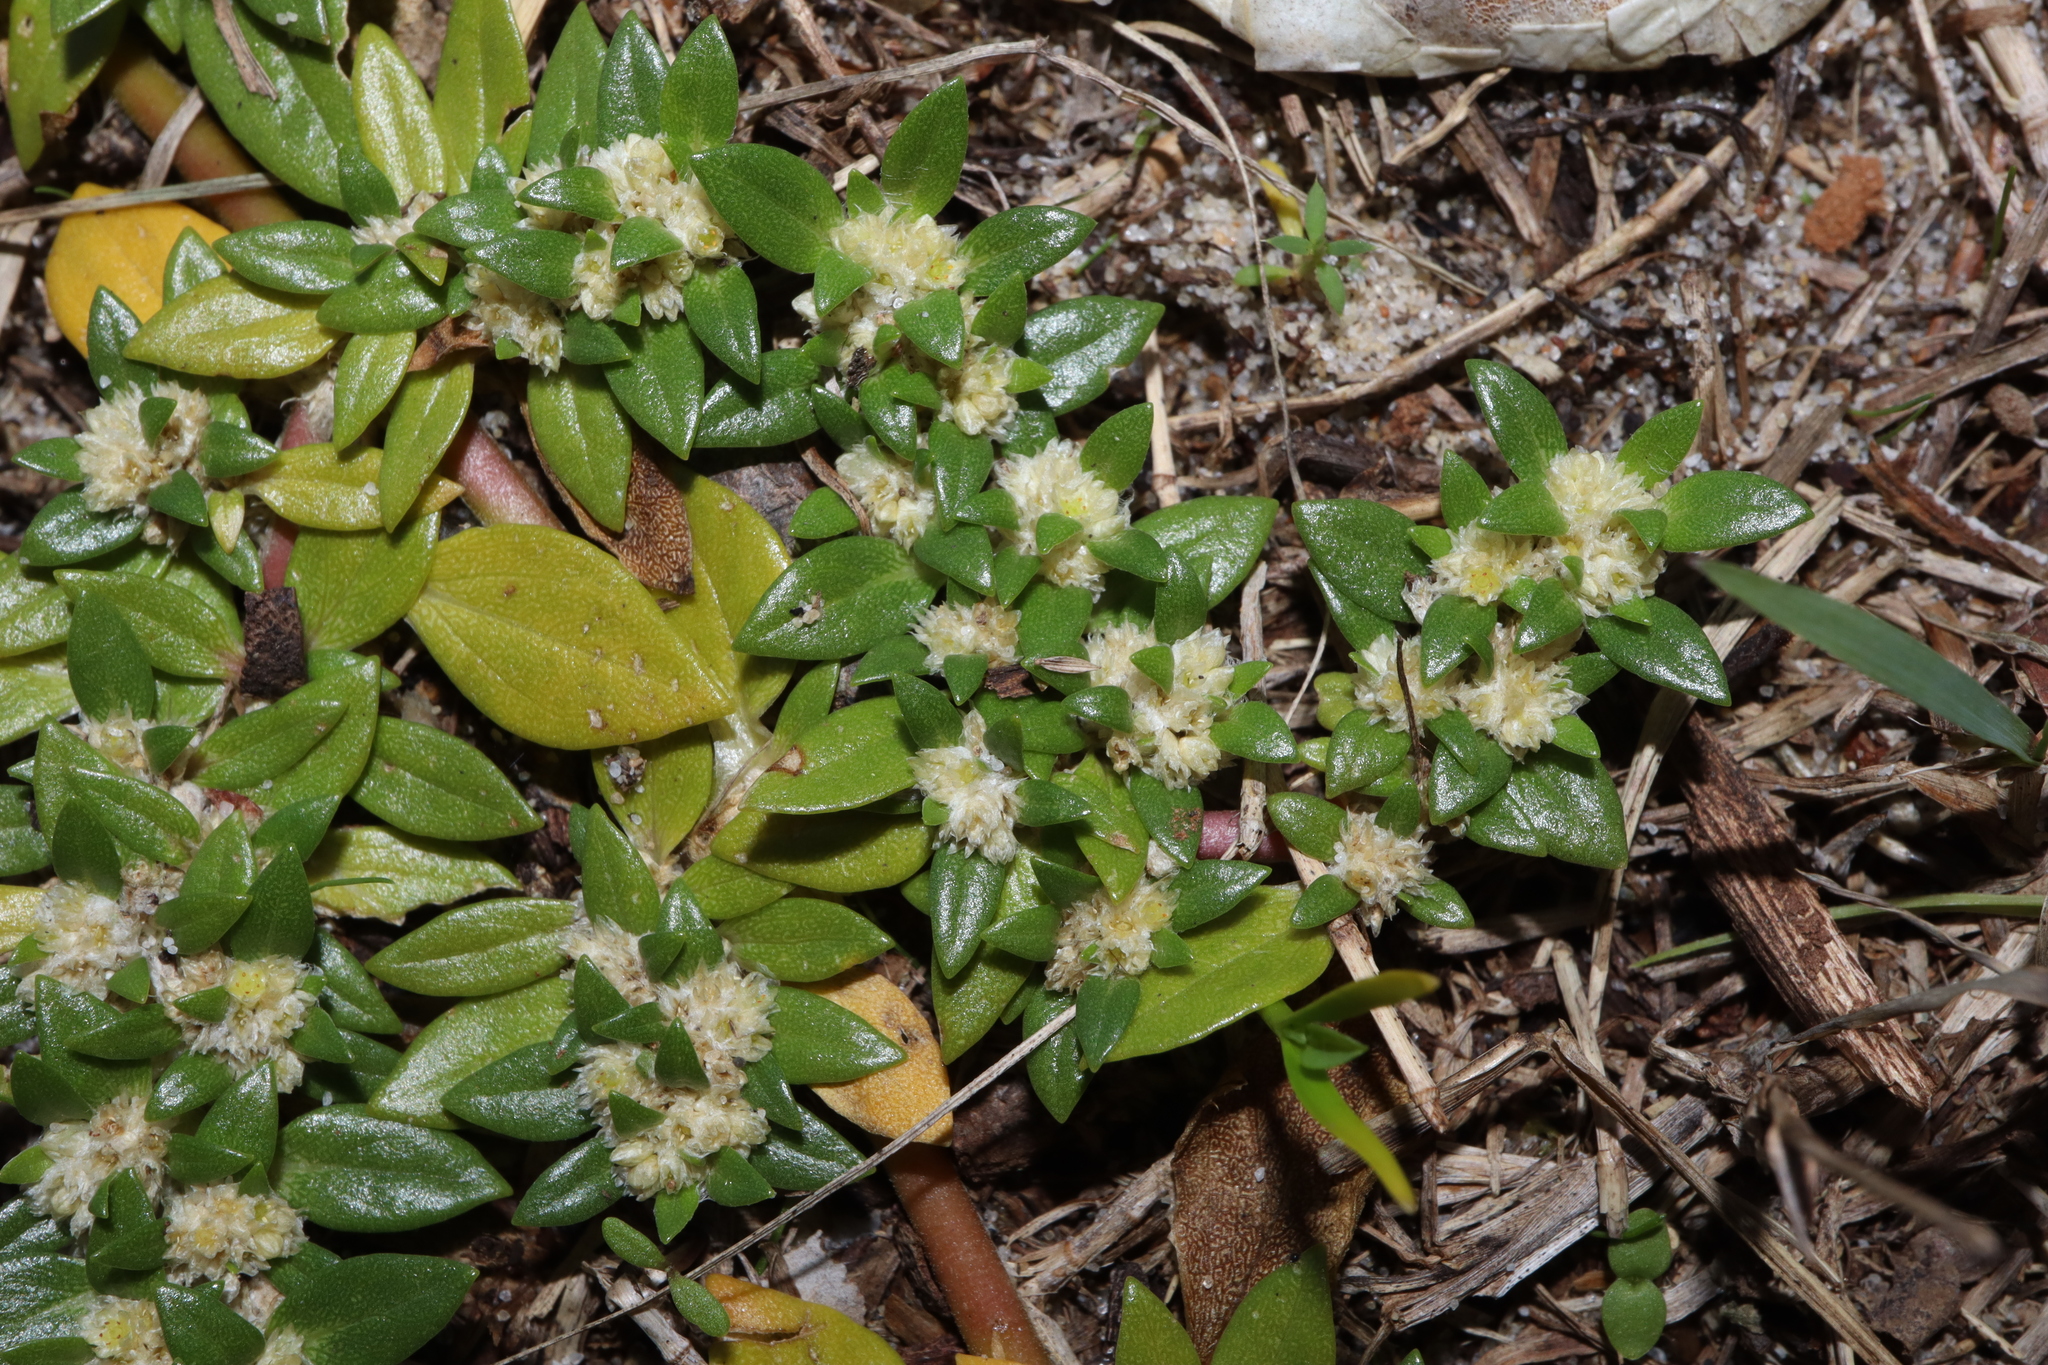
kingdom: Plantae
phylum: Tracheophyta
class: Magnoliopsida
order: Caryophyllales
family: Amaranthaceae
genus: Guilleminea
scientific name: Guilleminea densa
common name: Small matweed
